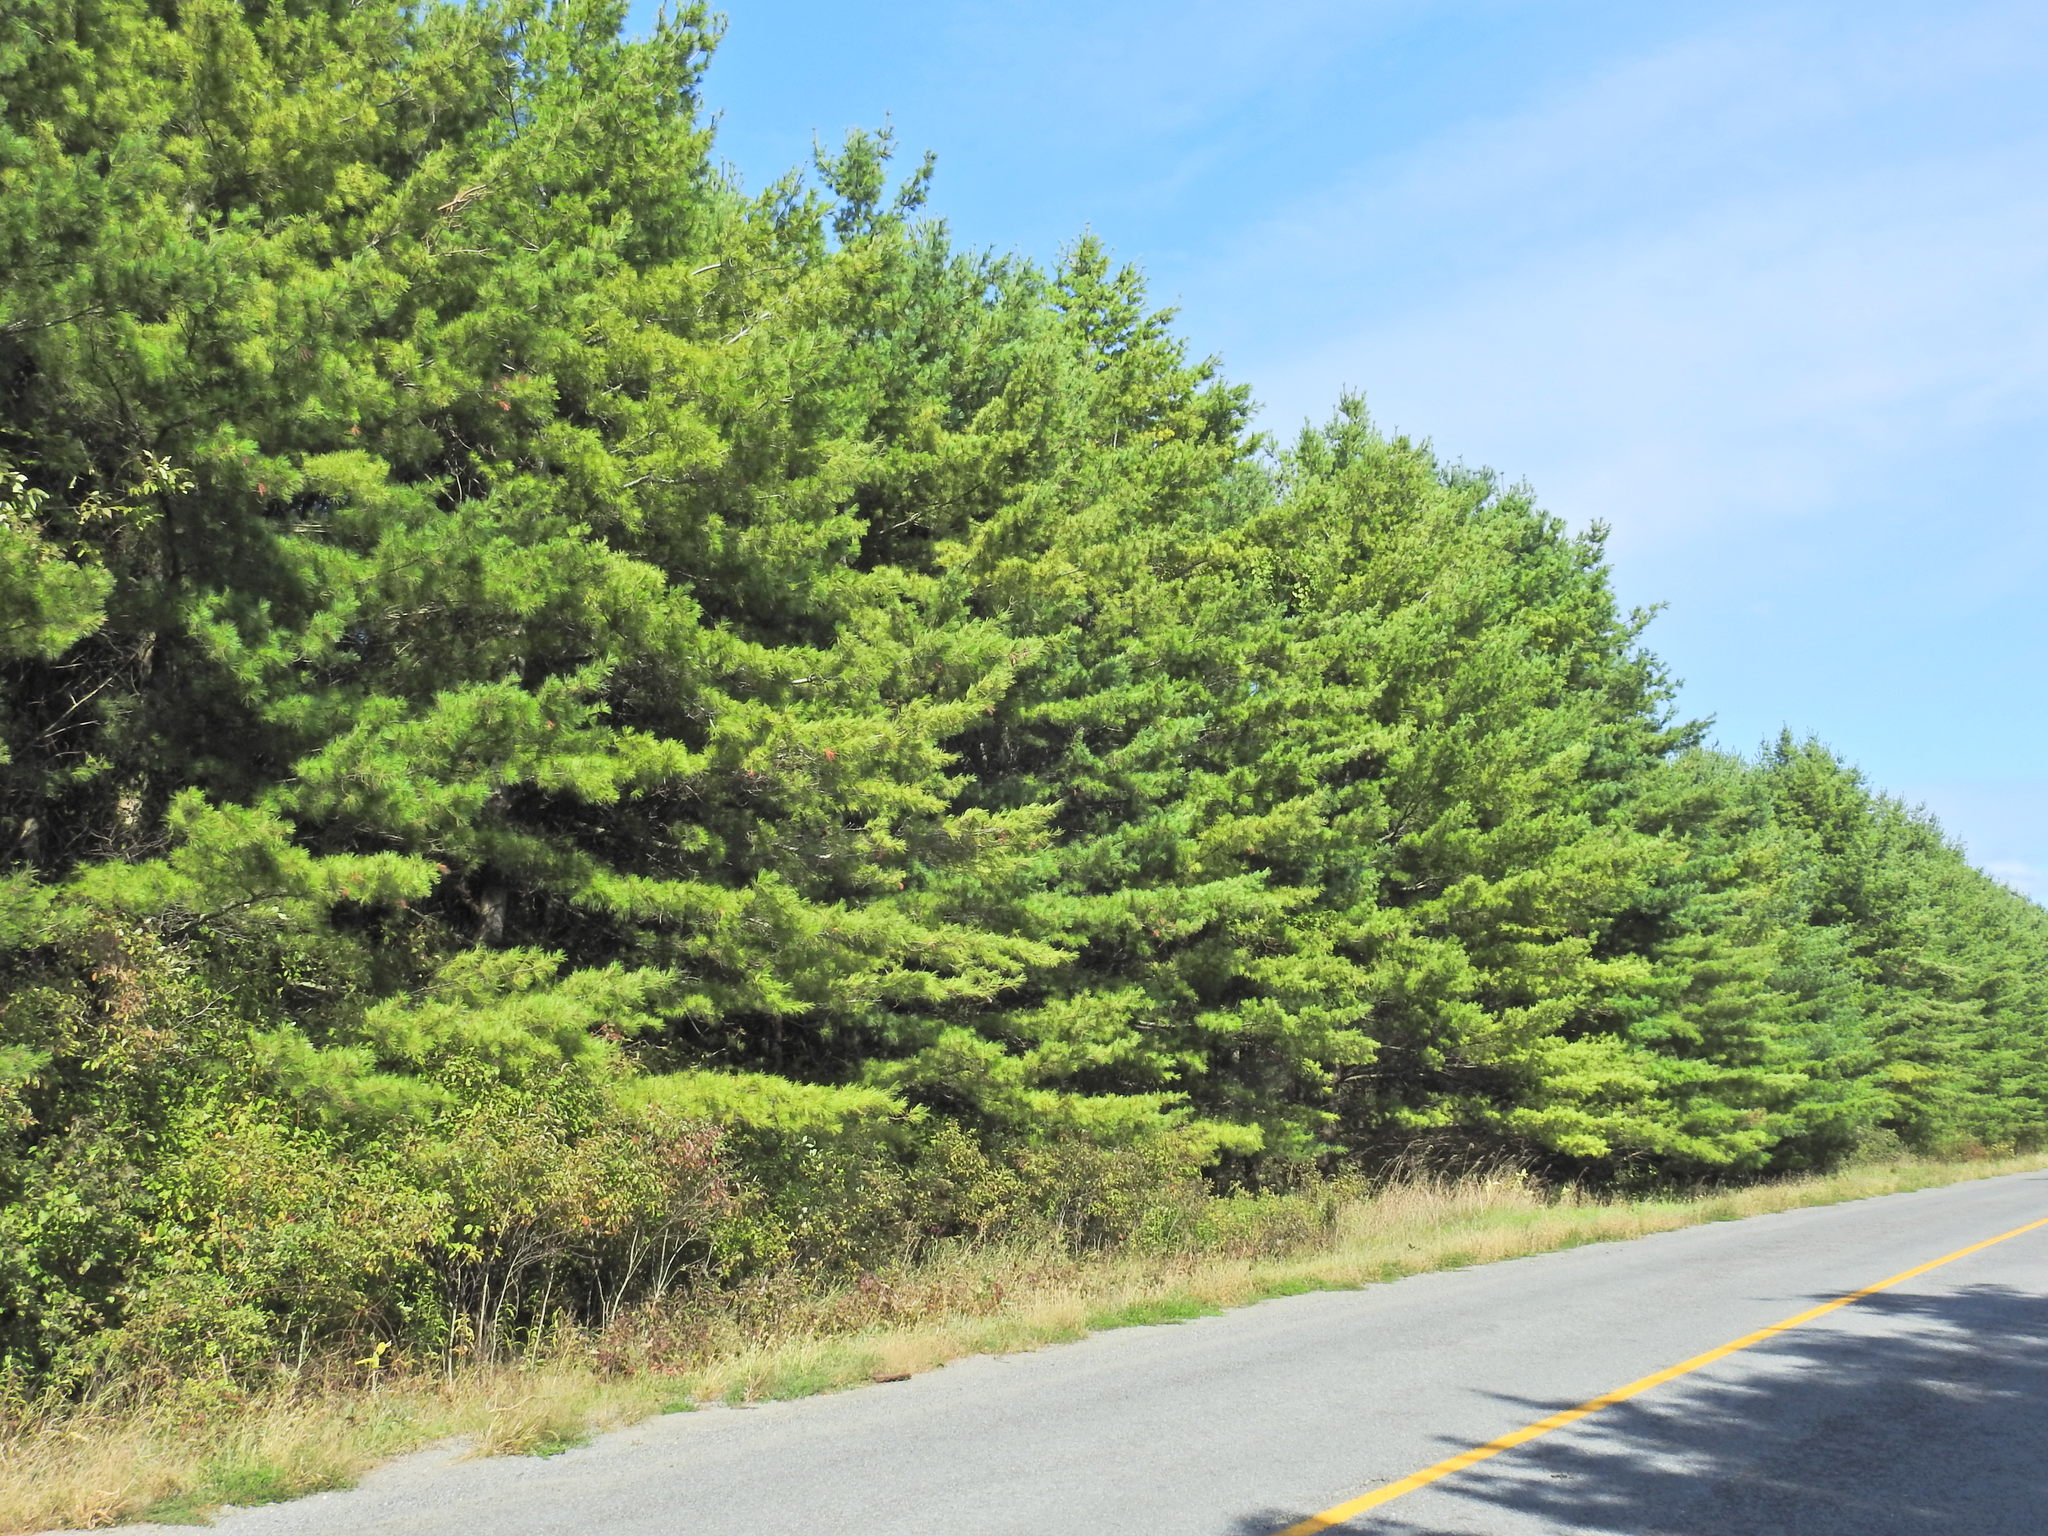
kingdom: Plantae
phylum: Tracheophyta
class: Pinopsida
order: Pinales
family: Pinaceae
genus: Pinus
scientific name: Pinus strobus
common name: Weymouth pine
